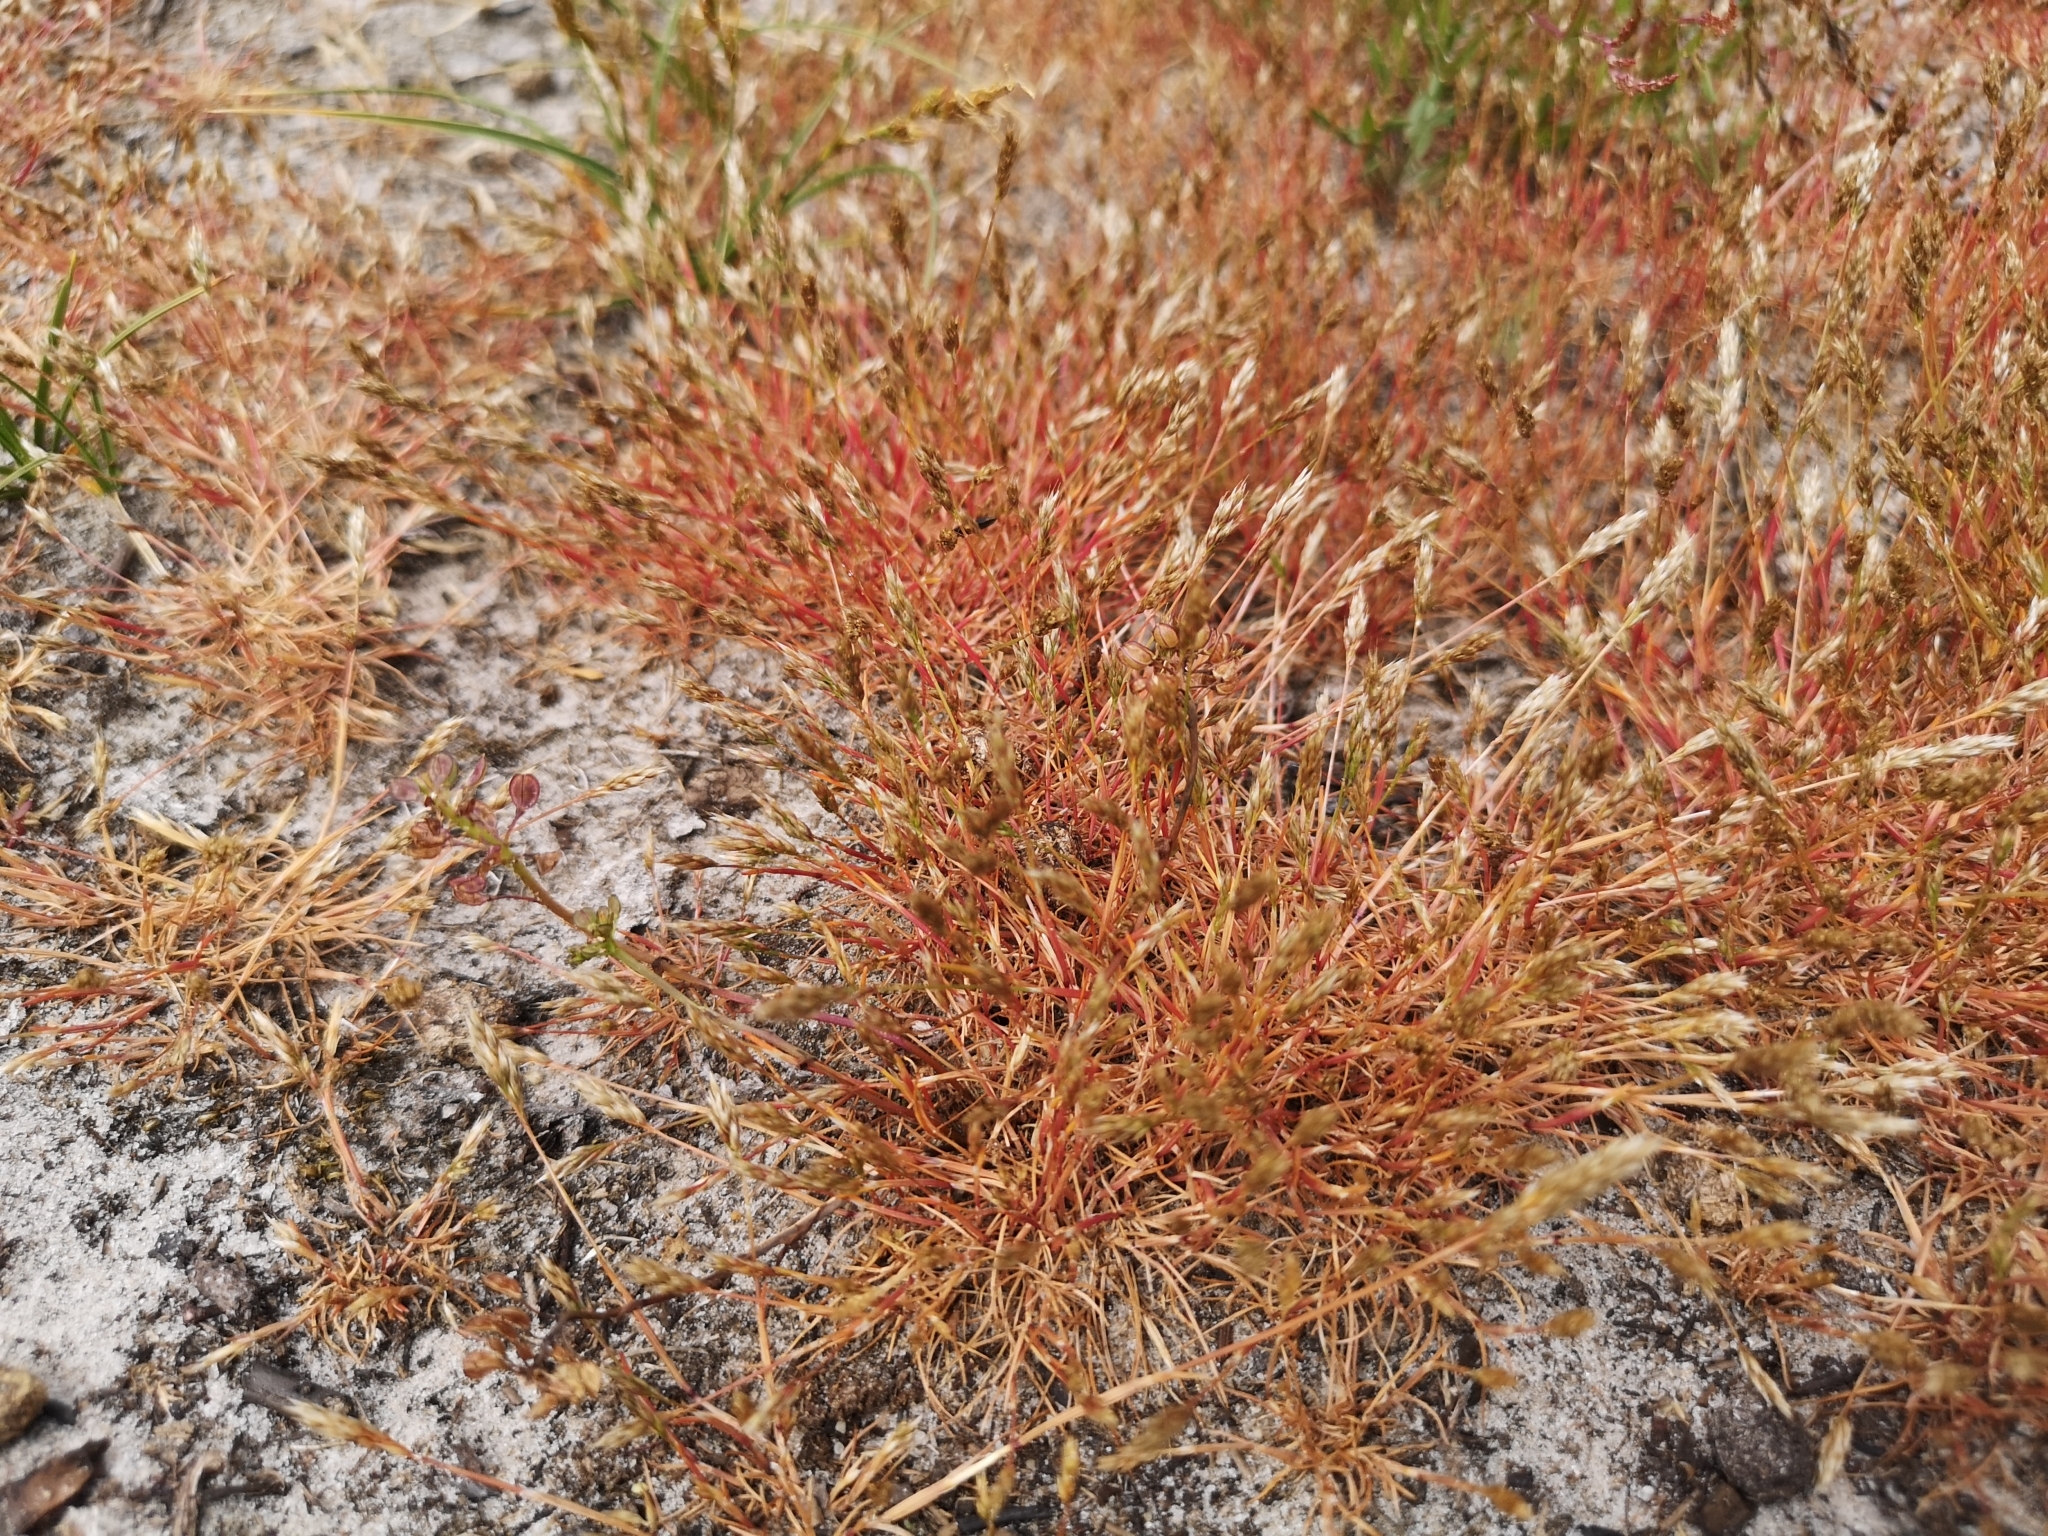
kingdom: Plantae
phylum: Tracheophyta
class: Liliopsida
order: Poales
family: Poaceae
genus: Aira
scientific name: Aira praecox
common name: Early hair-grass
